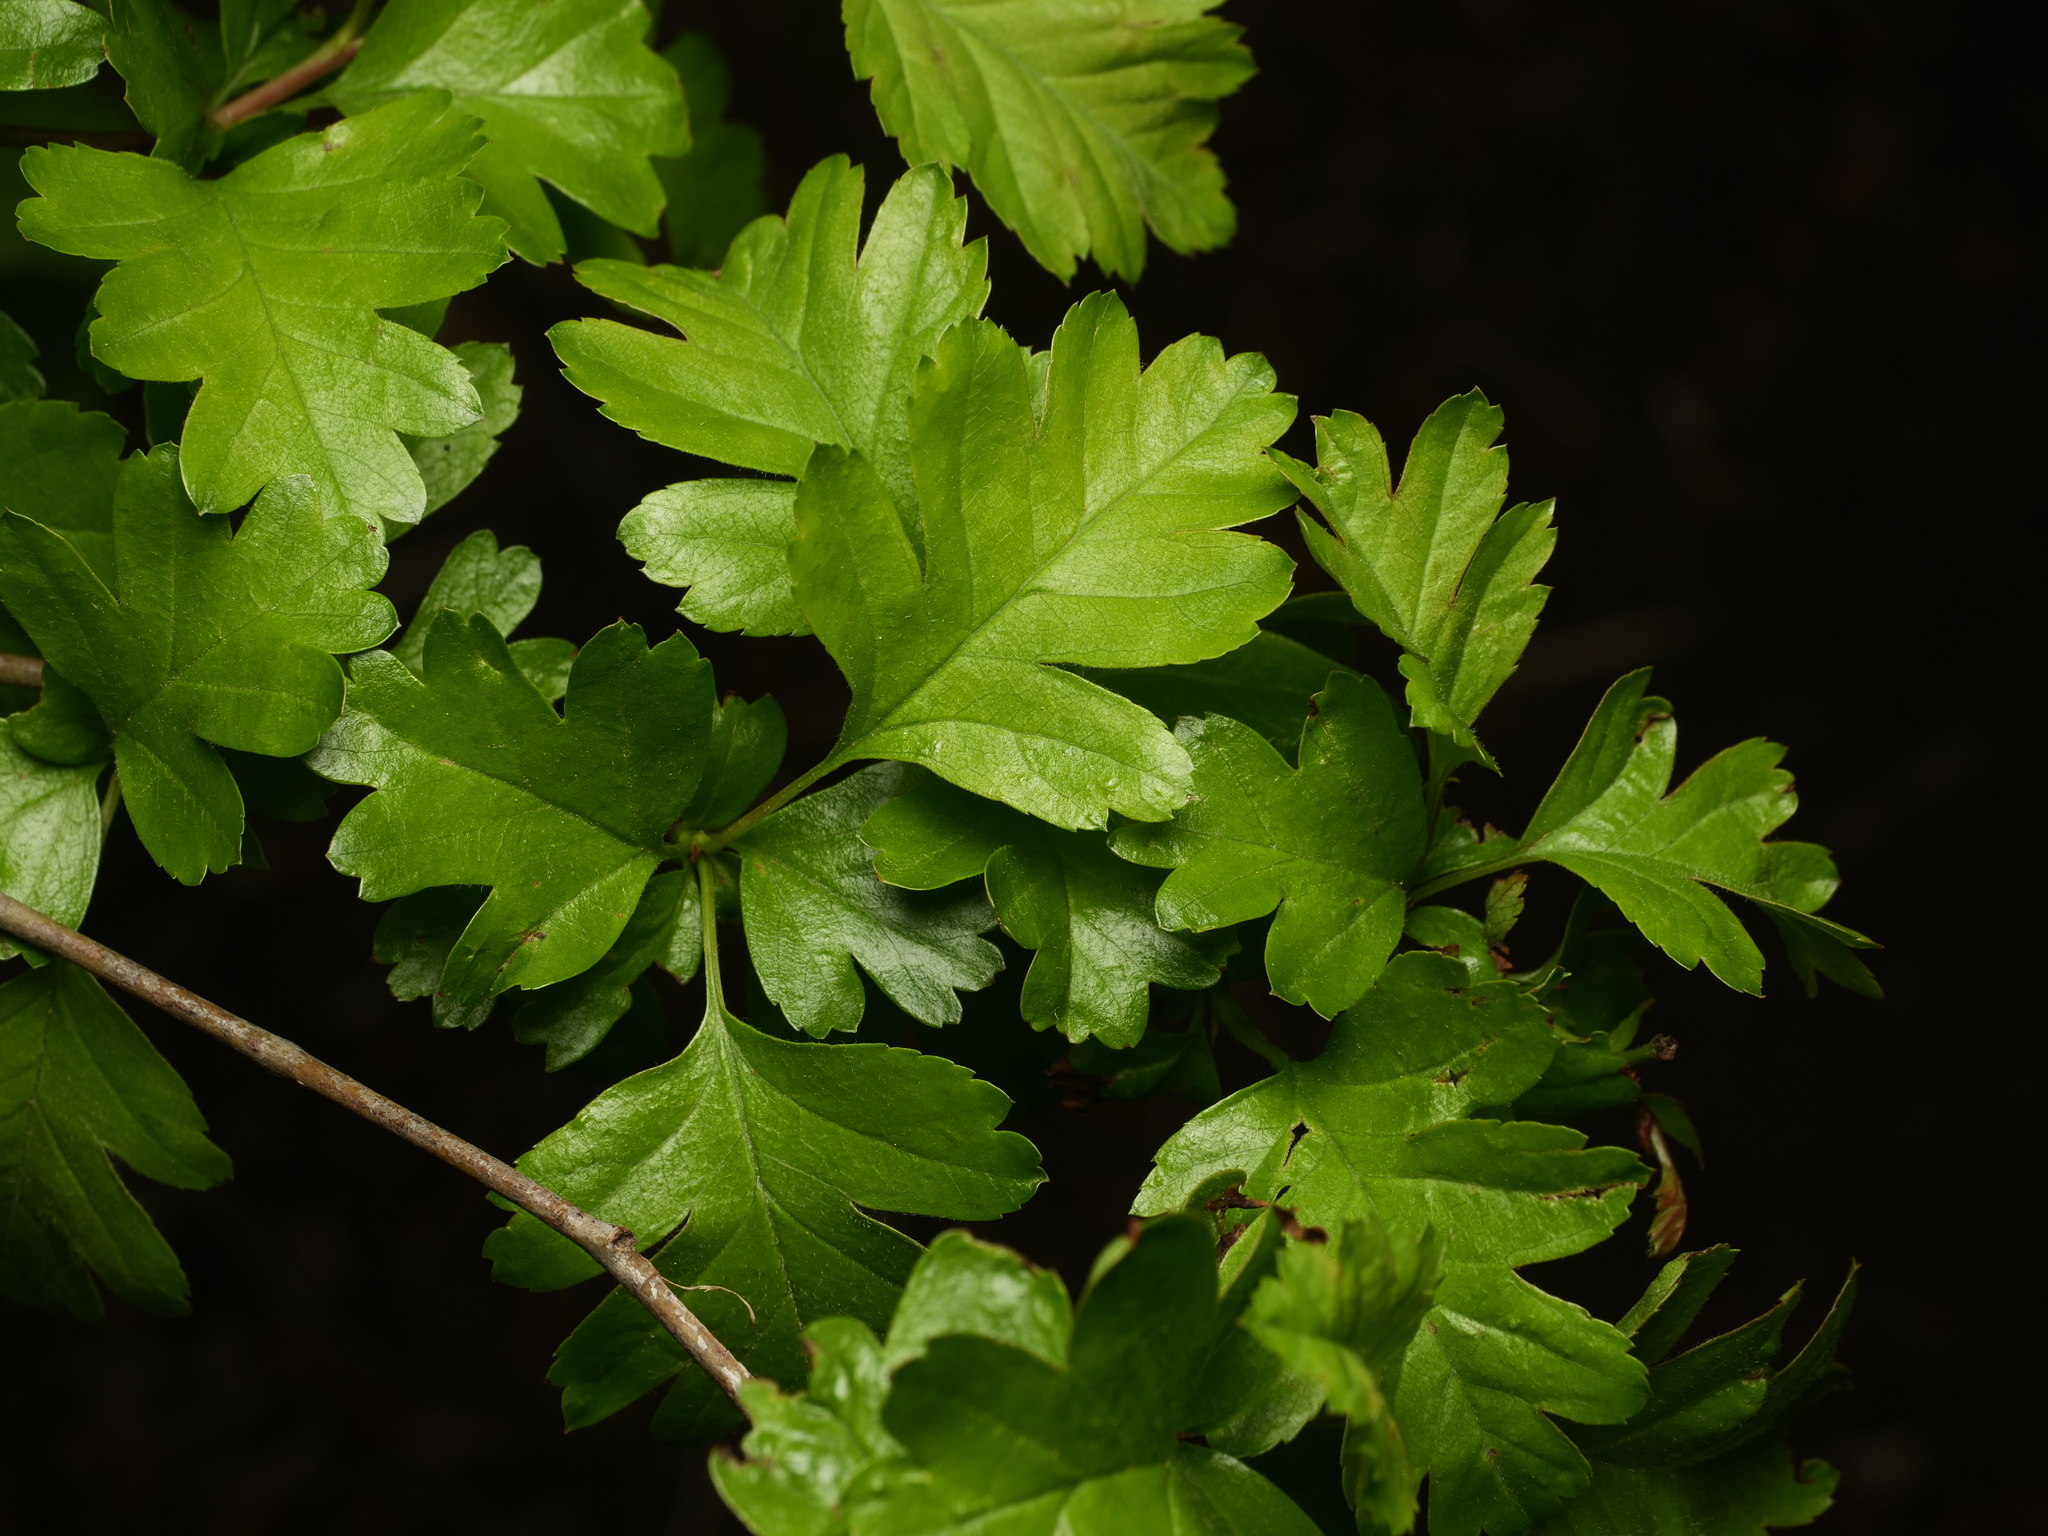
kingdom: Plantae
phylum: Tracheophyta
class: Magnoliopsida
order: Rosales
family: Rosaceae
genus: Crataegus
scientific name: Crataegus monogyna
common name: Hawthorn
